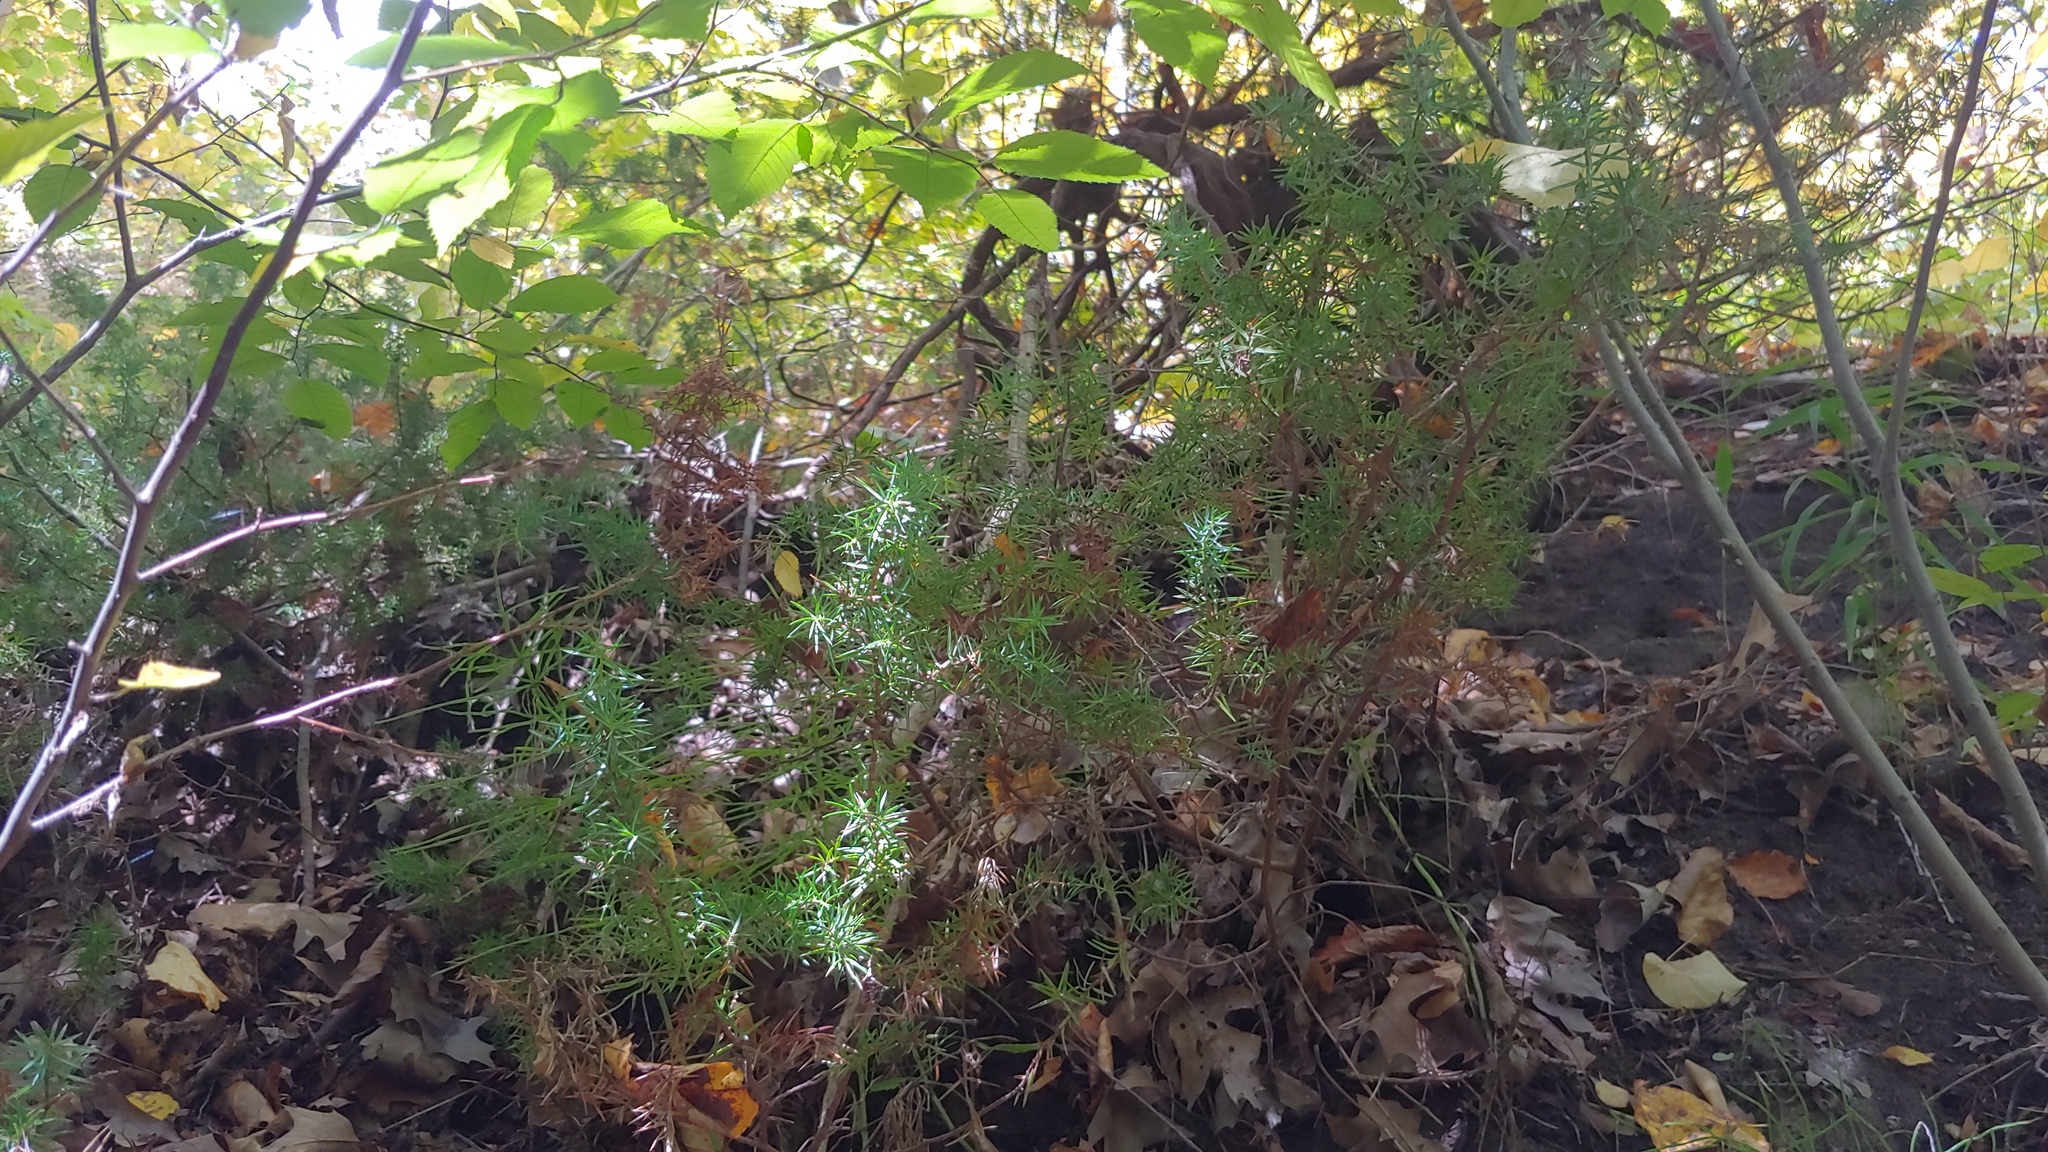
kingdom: Plantae
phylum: Tracheophyta
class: Pinopsida
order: Pinales
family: Cupressaceae
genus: Juniperus
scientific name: Juniperus communis
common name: Common juniper
